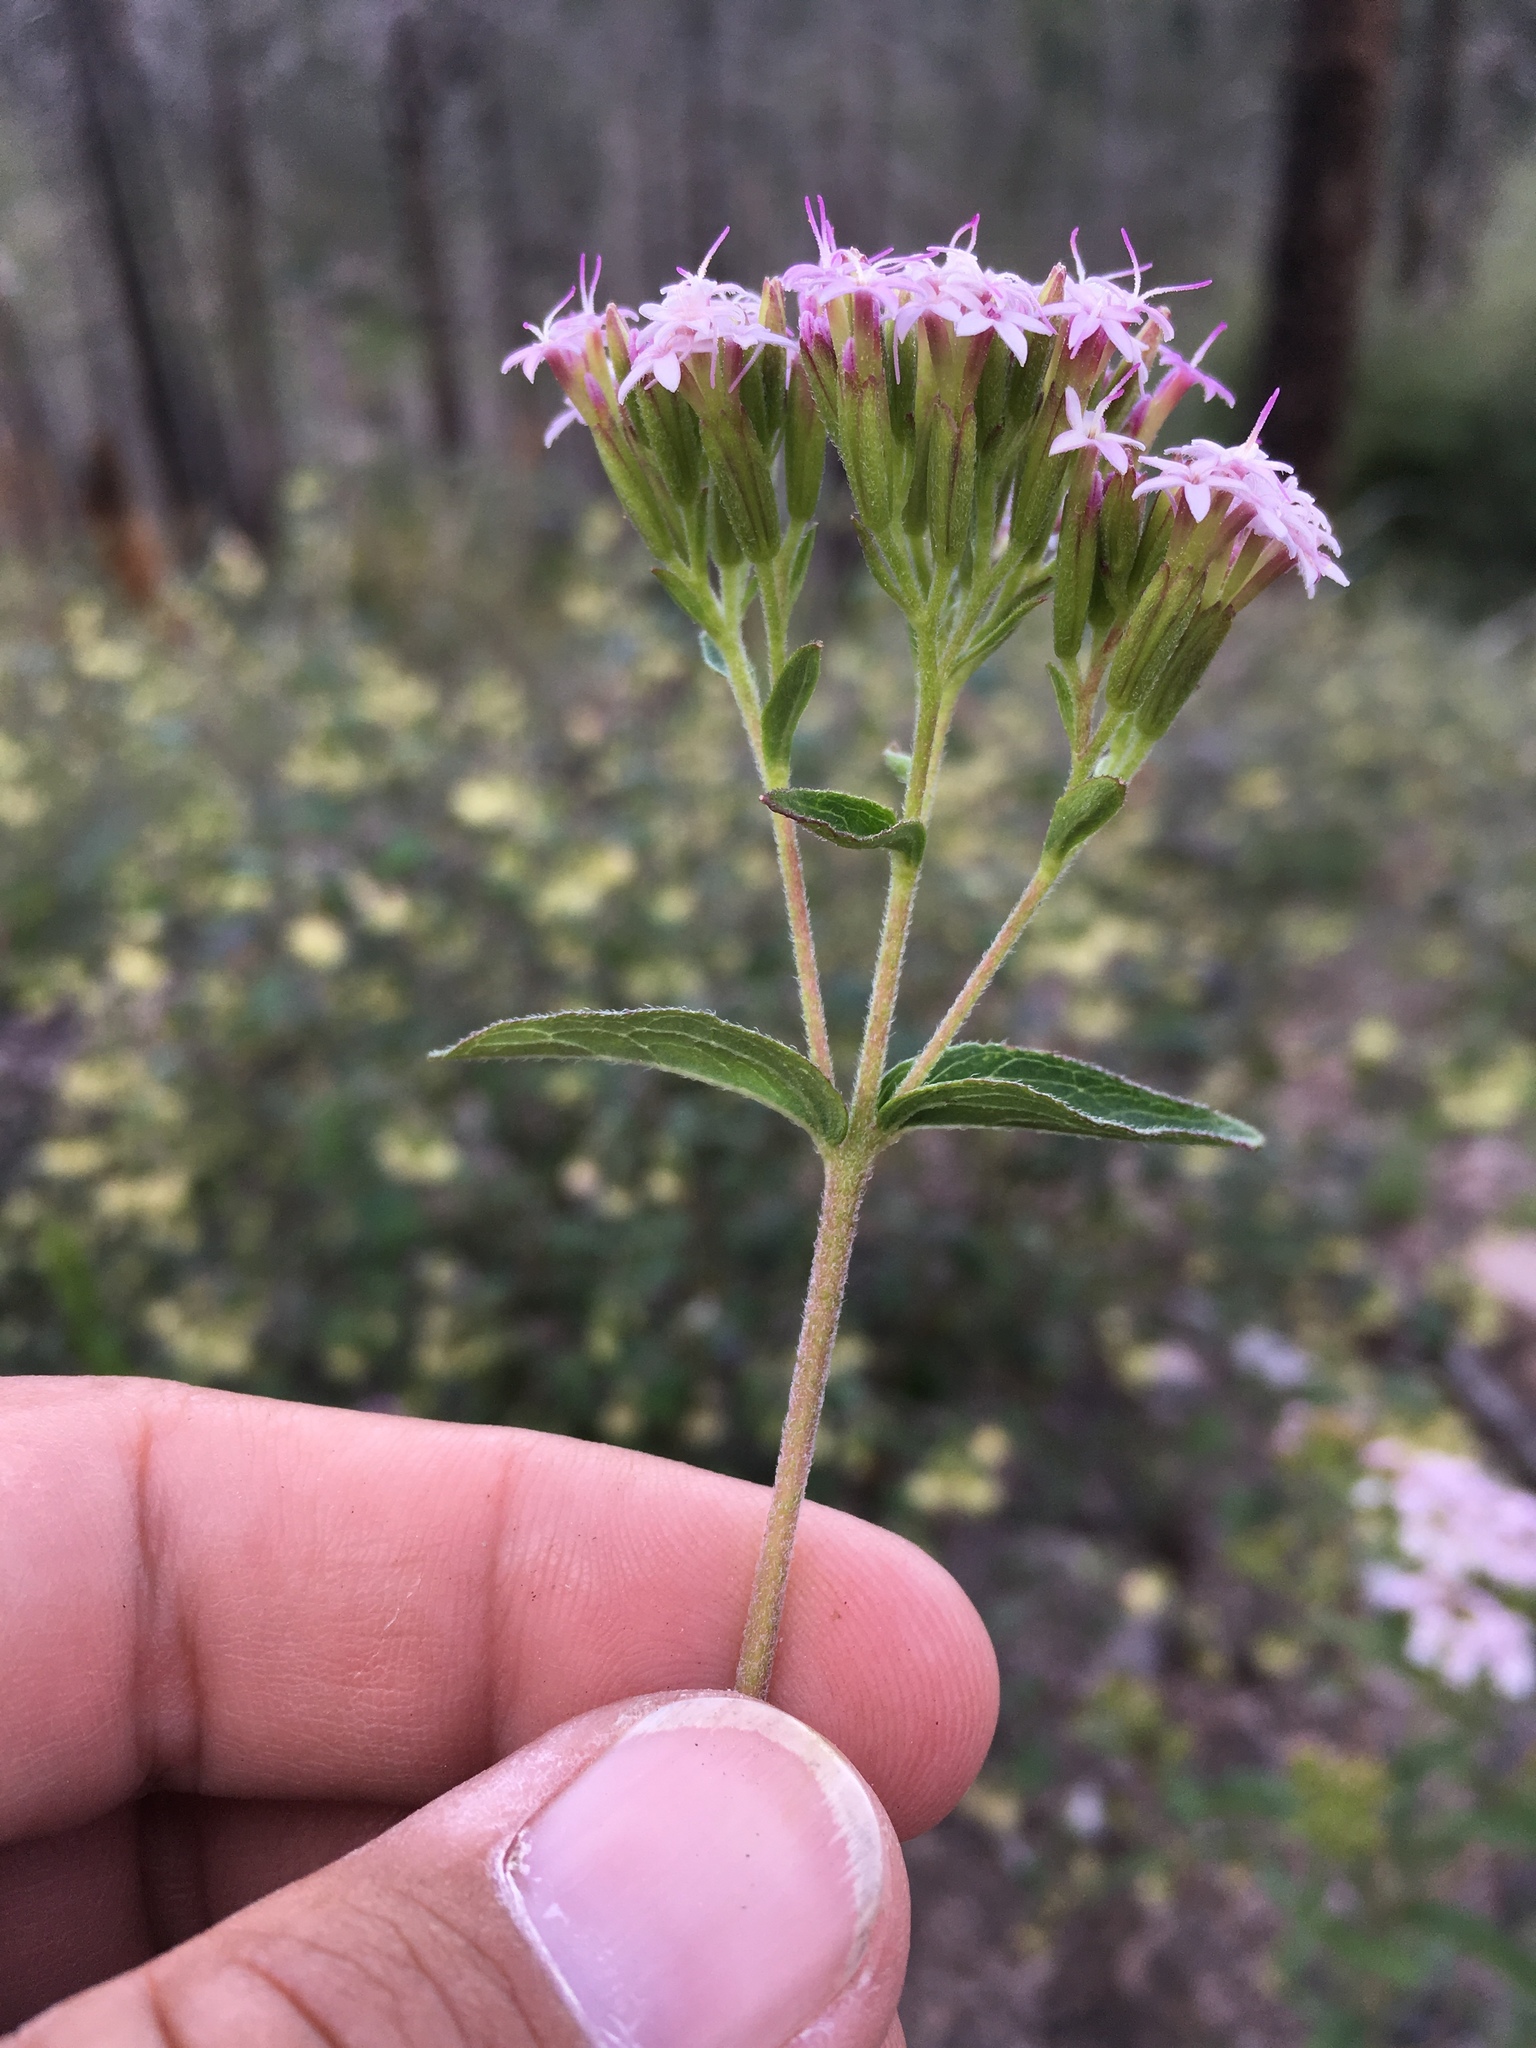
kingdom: Plantae
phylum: Tracheophyta
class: Magnoliopsida
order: Asterales
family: Asteraceae
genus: Stevia
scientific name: Stevia plummerae
